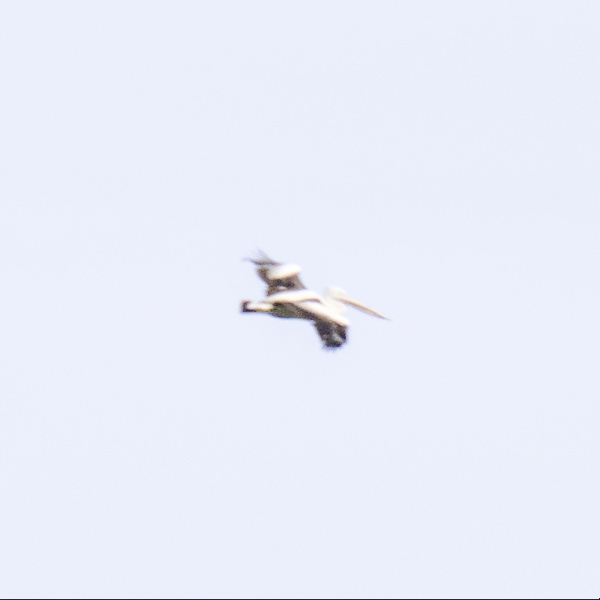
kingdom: Animalia
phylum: Chordata
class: Aves
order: Pelecaniformes
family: Pelecanidae
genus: Pelecanus
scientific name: Pelecanus conspicillatus
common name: Australian pelican
